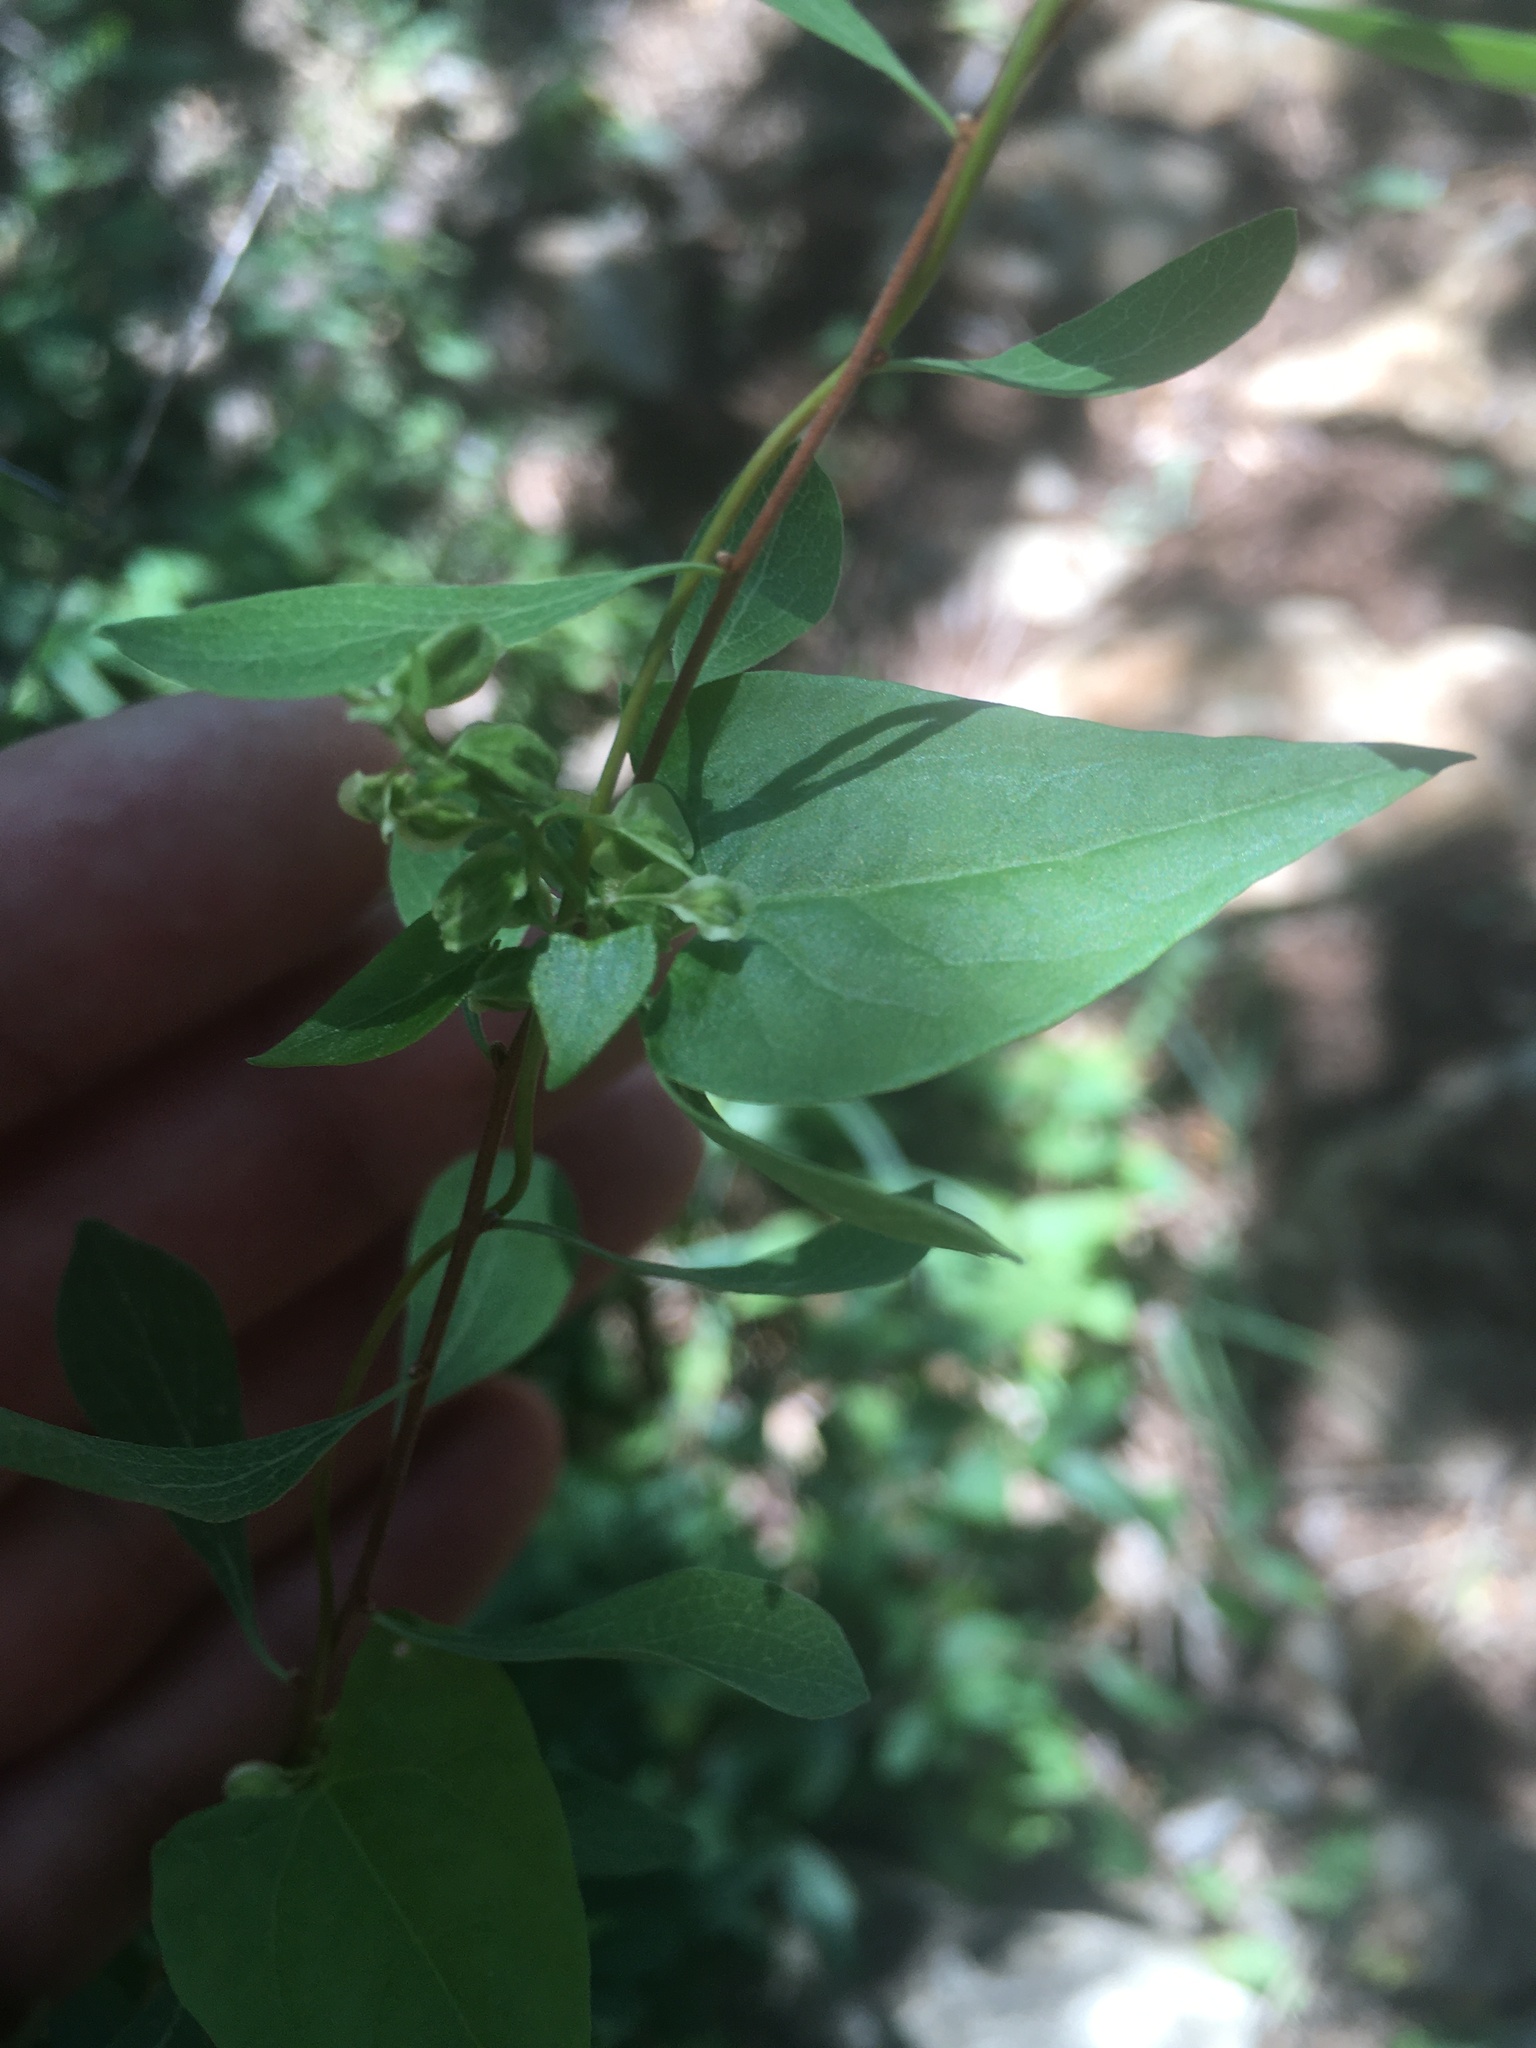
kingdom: Plantae
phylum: Tracheophyta
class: Magnoliopsida
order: Caryophyllales
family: Polygonaceae
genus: Fallopia
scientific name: Fallopia dumetorum
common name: Copse-bindweed
